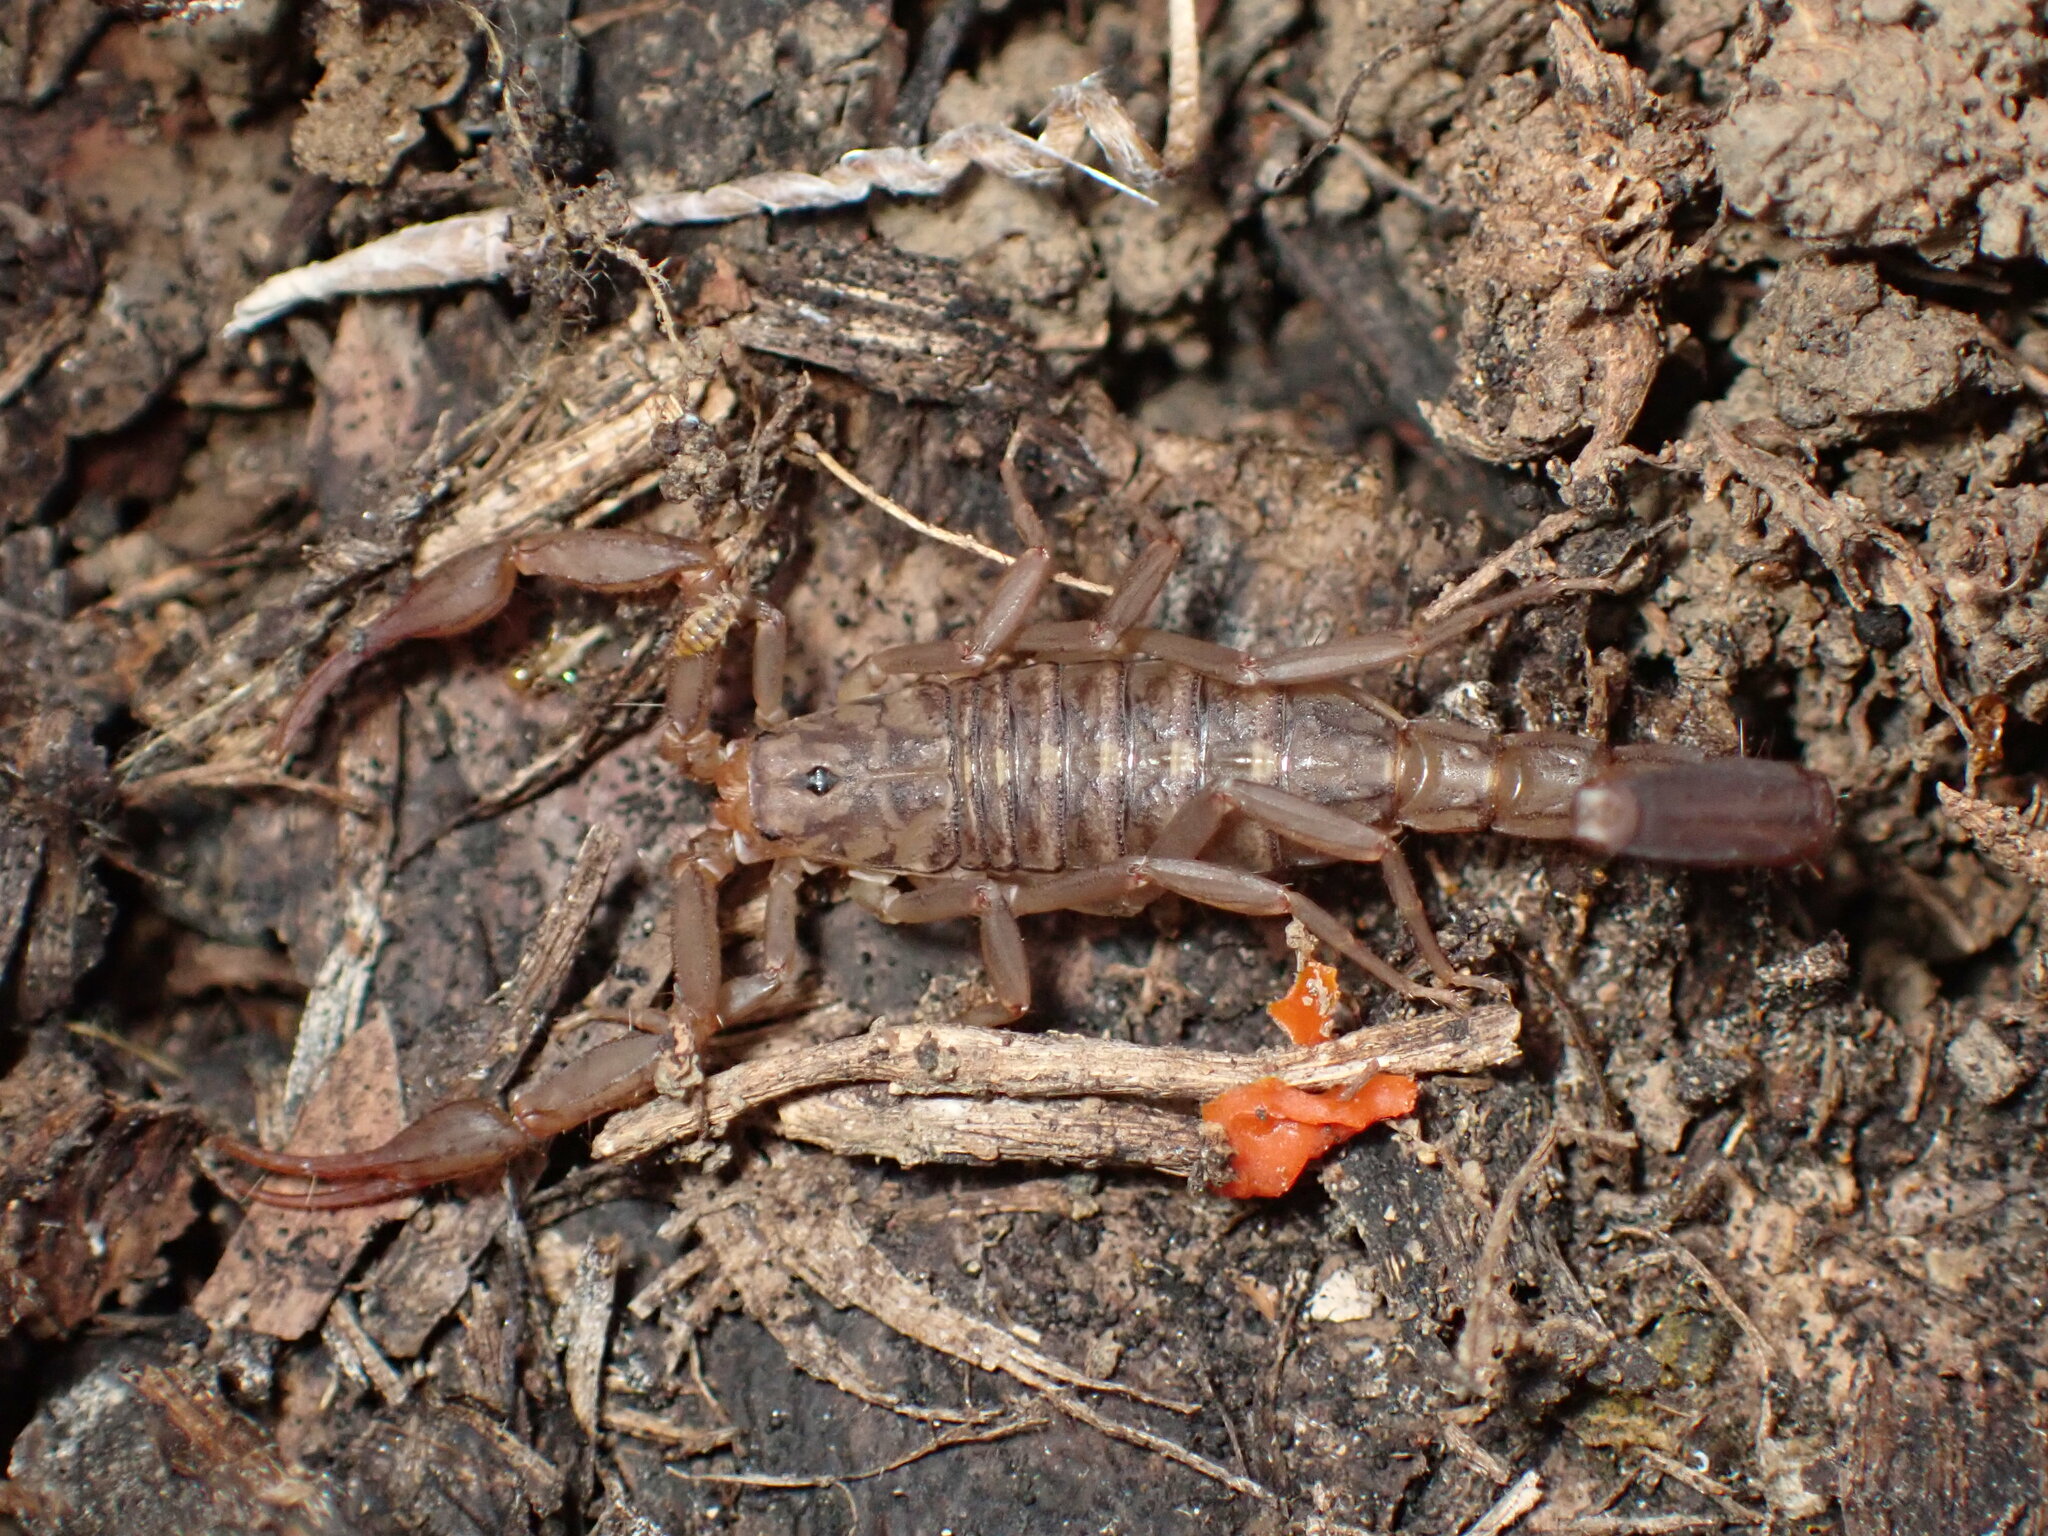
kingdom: Animalia
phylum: Arthropoda
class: Arachnida
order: Scorpiones
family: Vaejovidae
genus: Serradigitus
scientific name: Serradigitus gertschi
